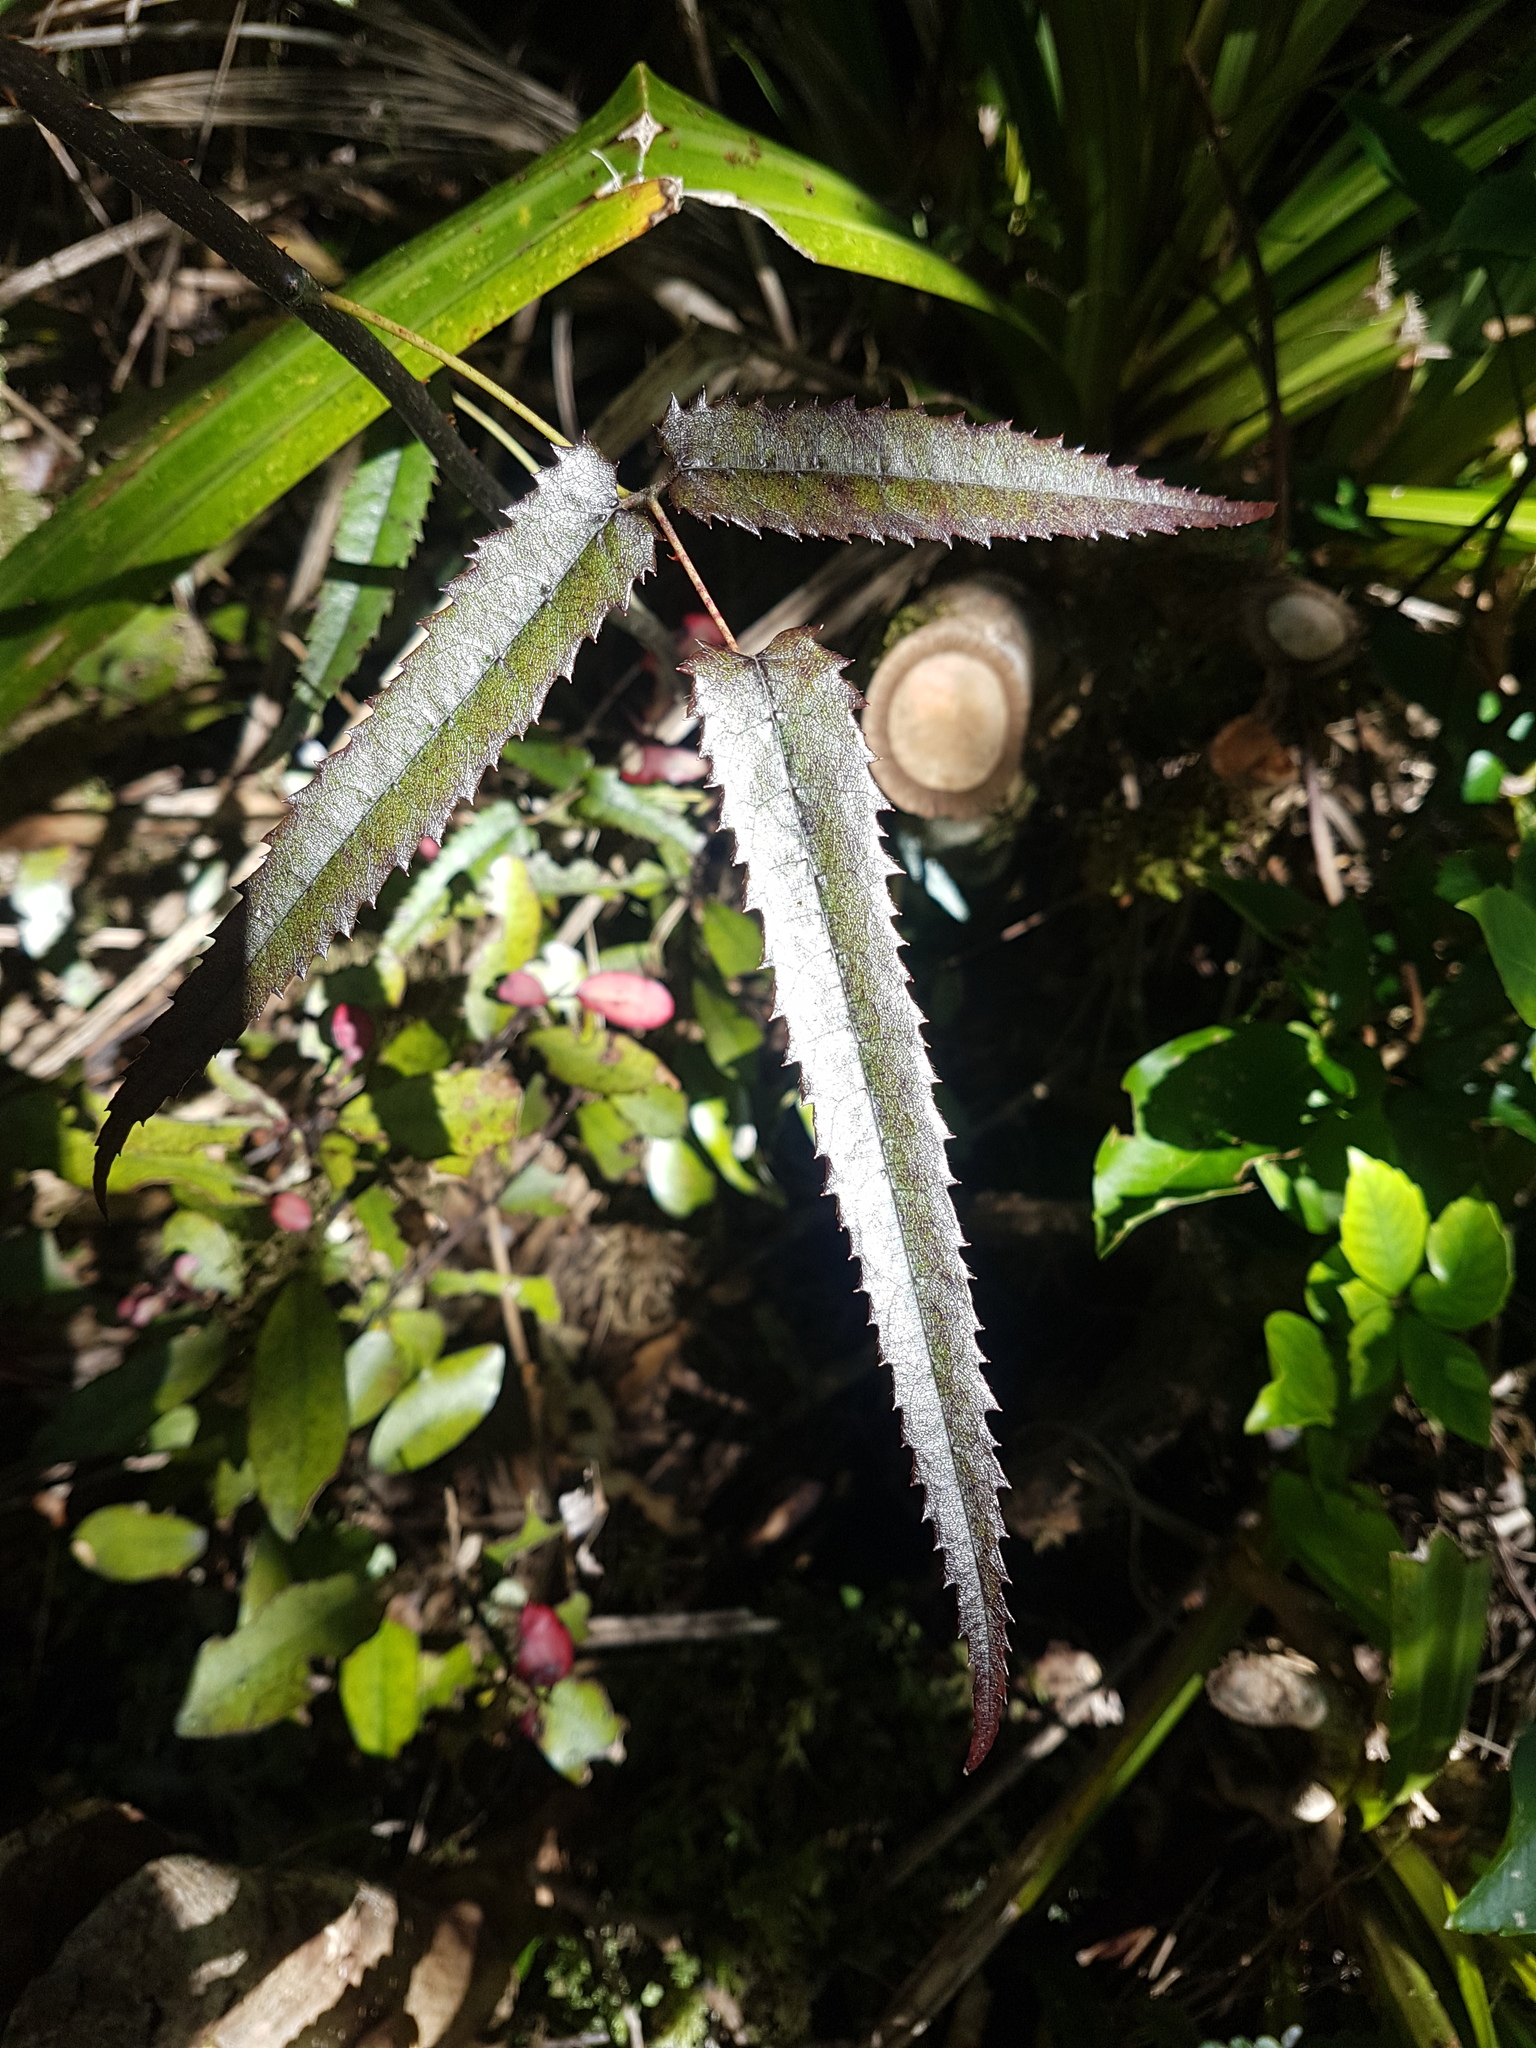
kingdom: Plantae
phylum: Tracheophyta
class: Magnoliopsida
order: Rosales
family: Rosaceae
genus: Rubus
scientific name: Rubus cissoides
